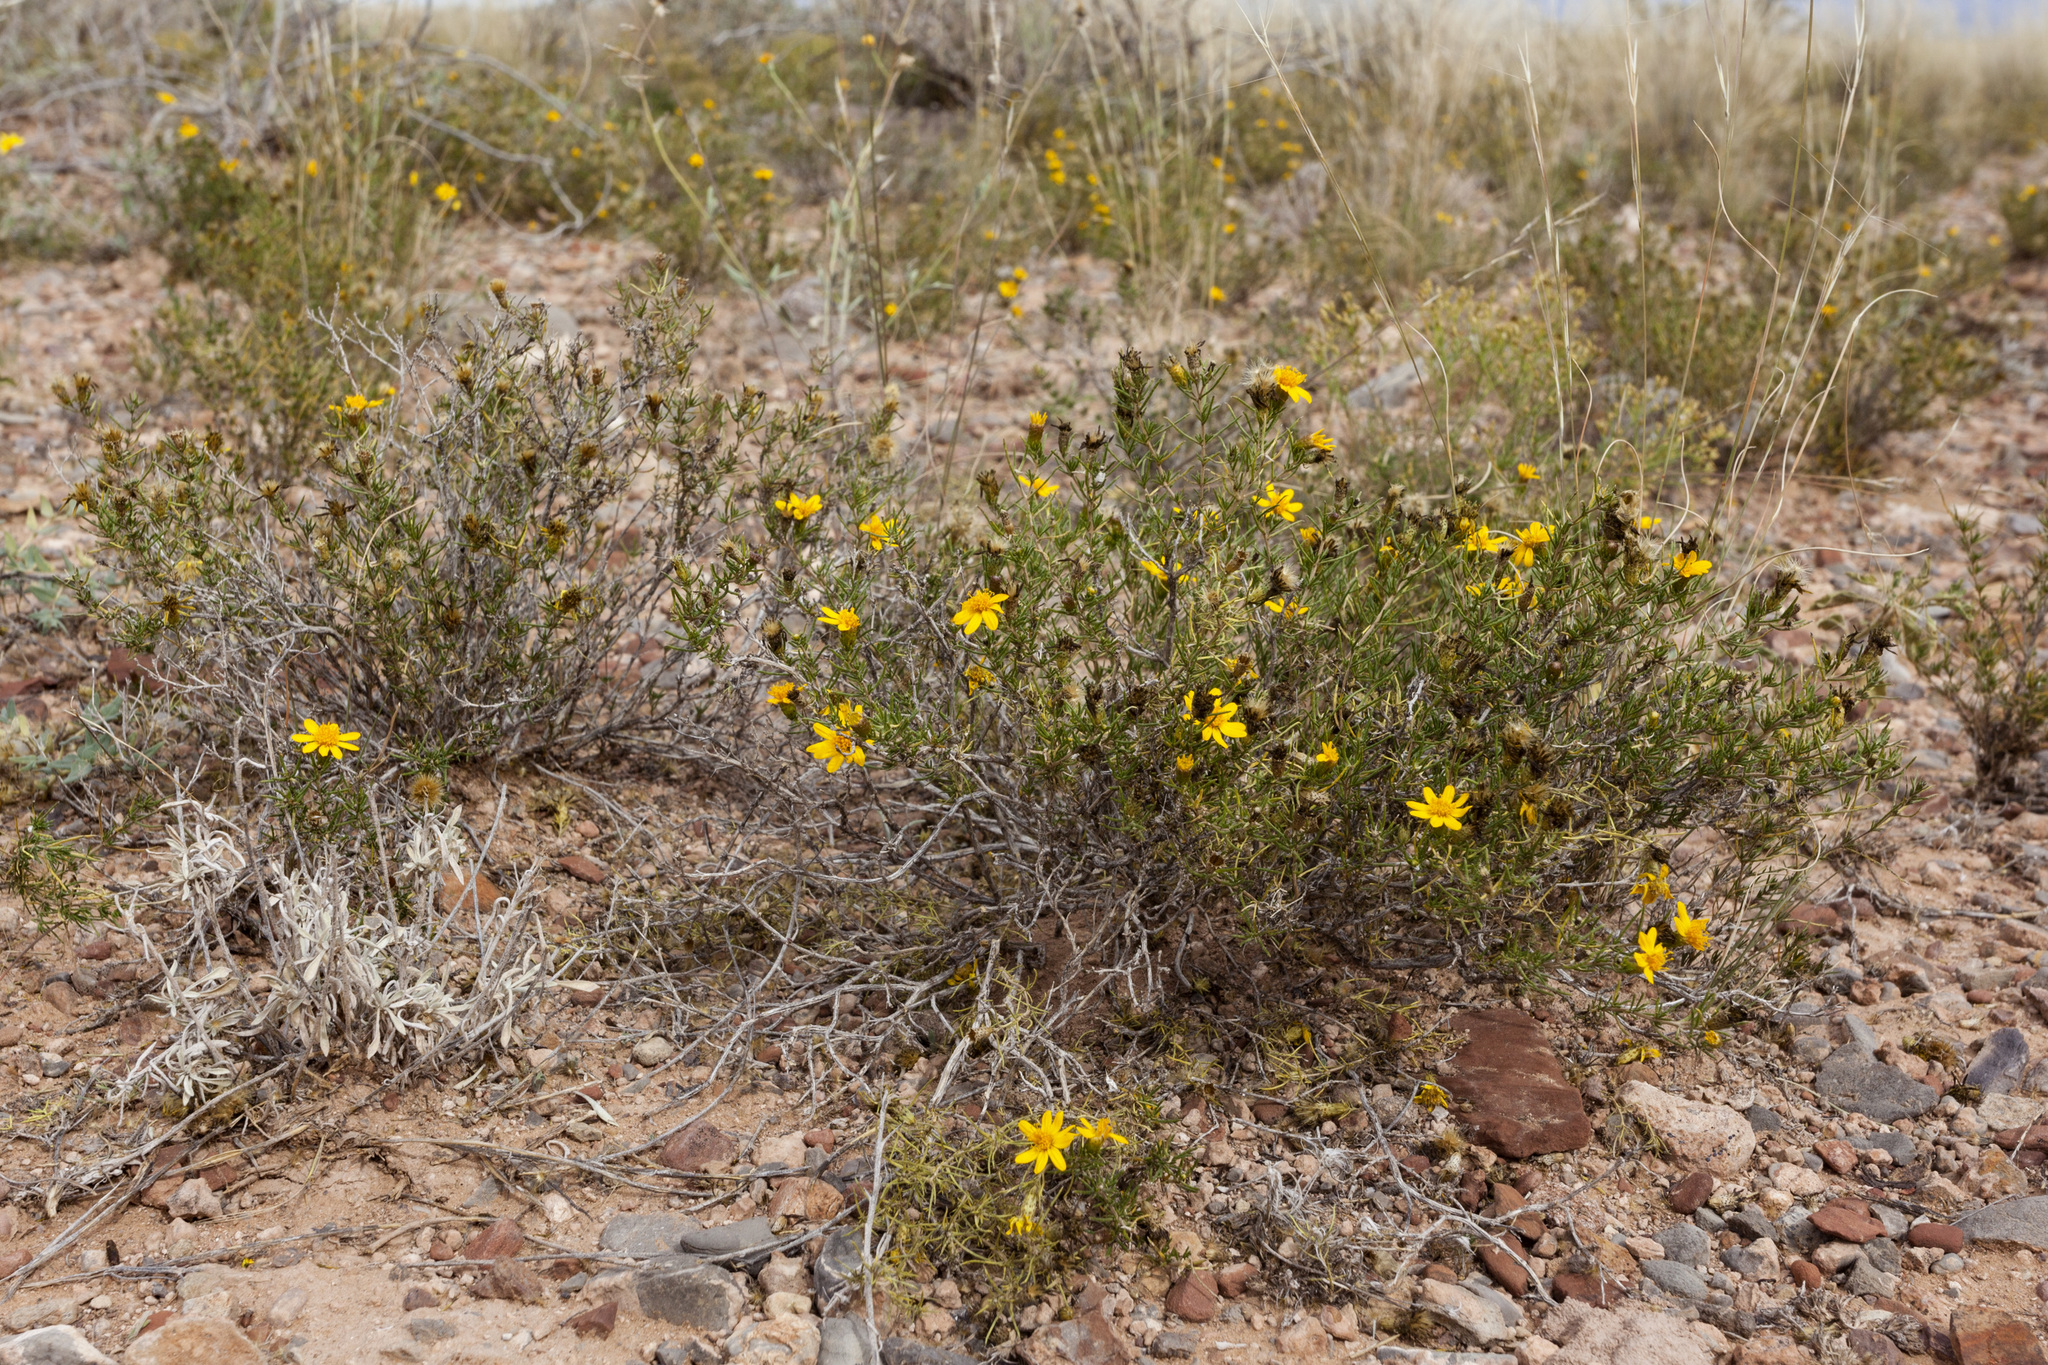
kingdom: Plantae
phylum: Tracheophyta
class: Magnoliopsida
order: Asterales
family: Asteraceae
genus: Thymophylla
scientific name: Thymophylla acerosa
